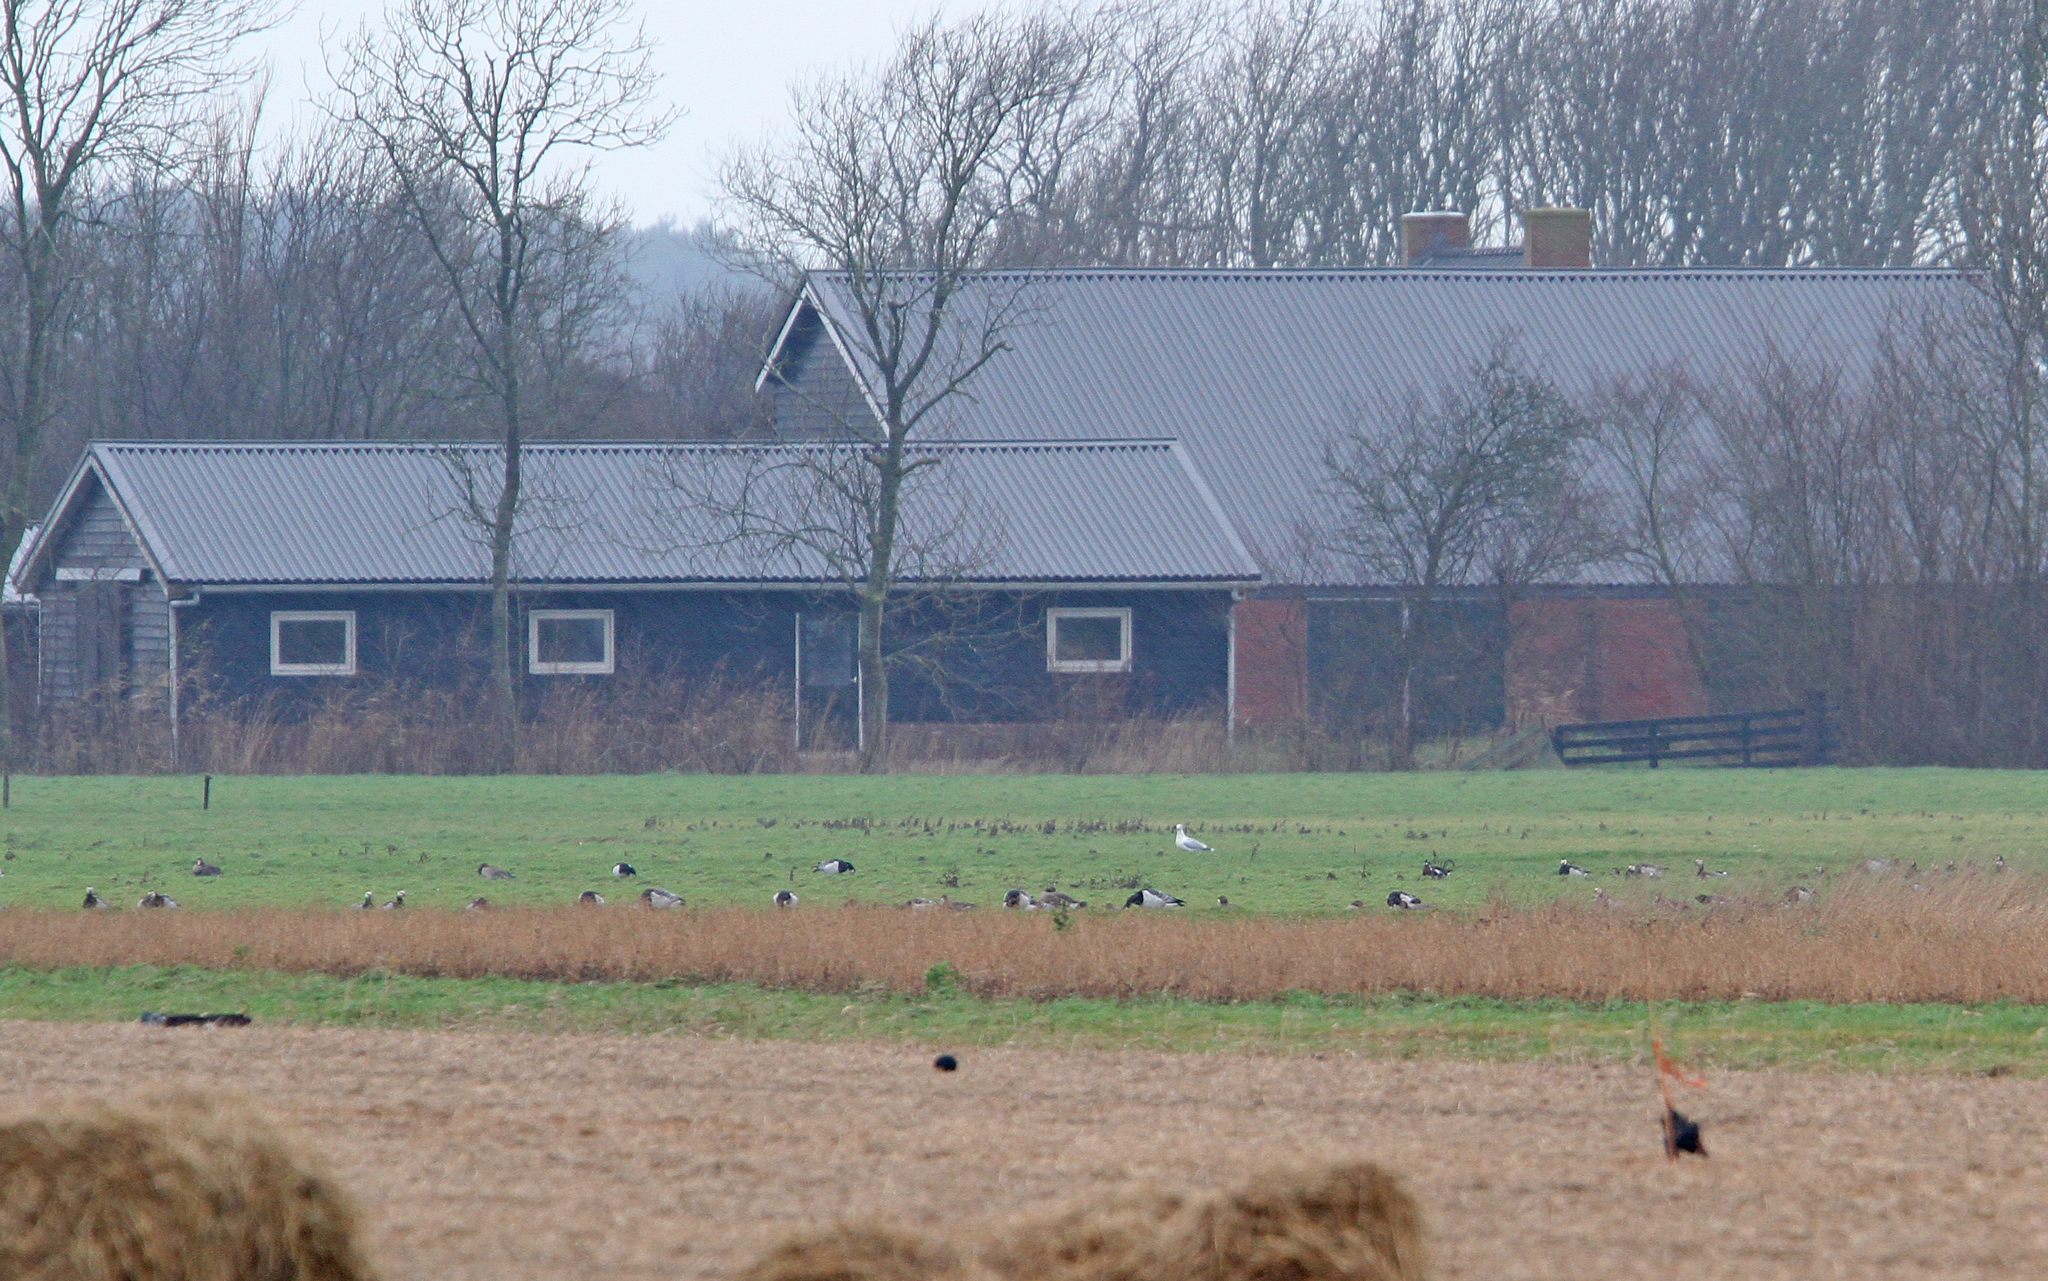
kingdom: Animalia
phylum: Chordata
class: Aves
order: Anseriformes
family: Anatidae
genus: Branta
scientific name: Branta ruficollis
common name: Red-breasted goose
